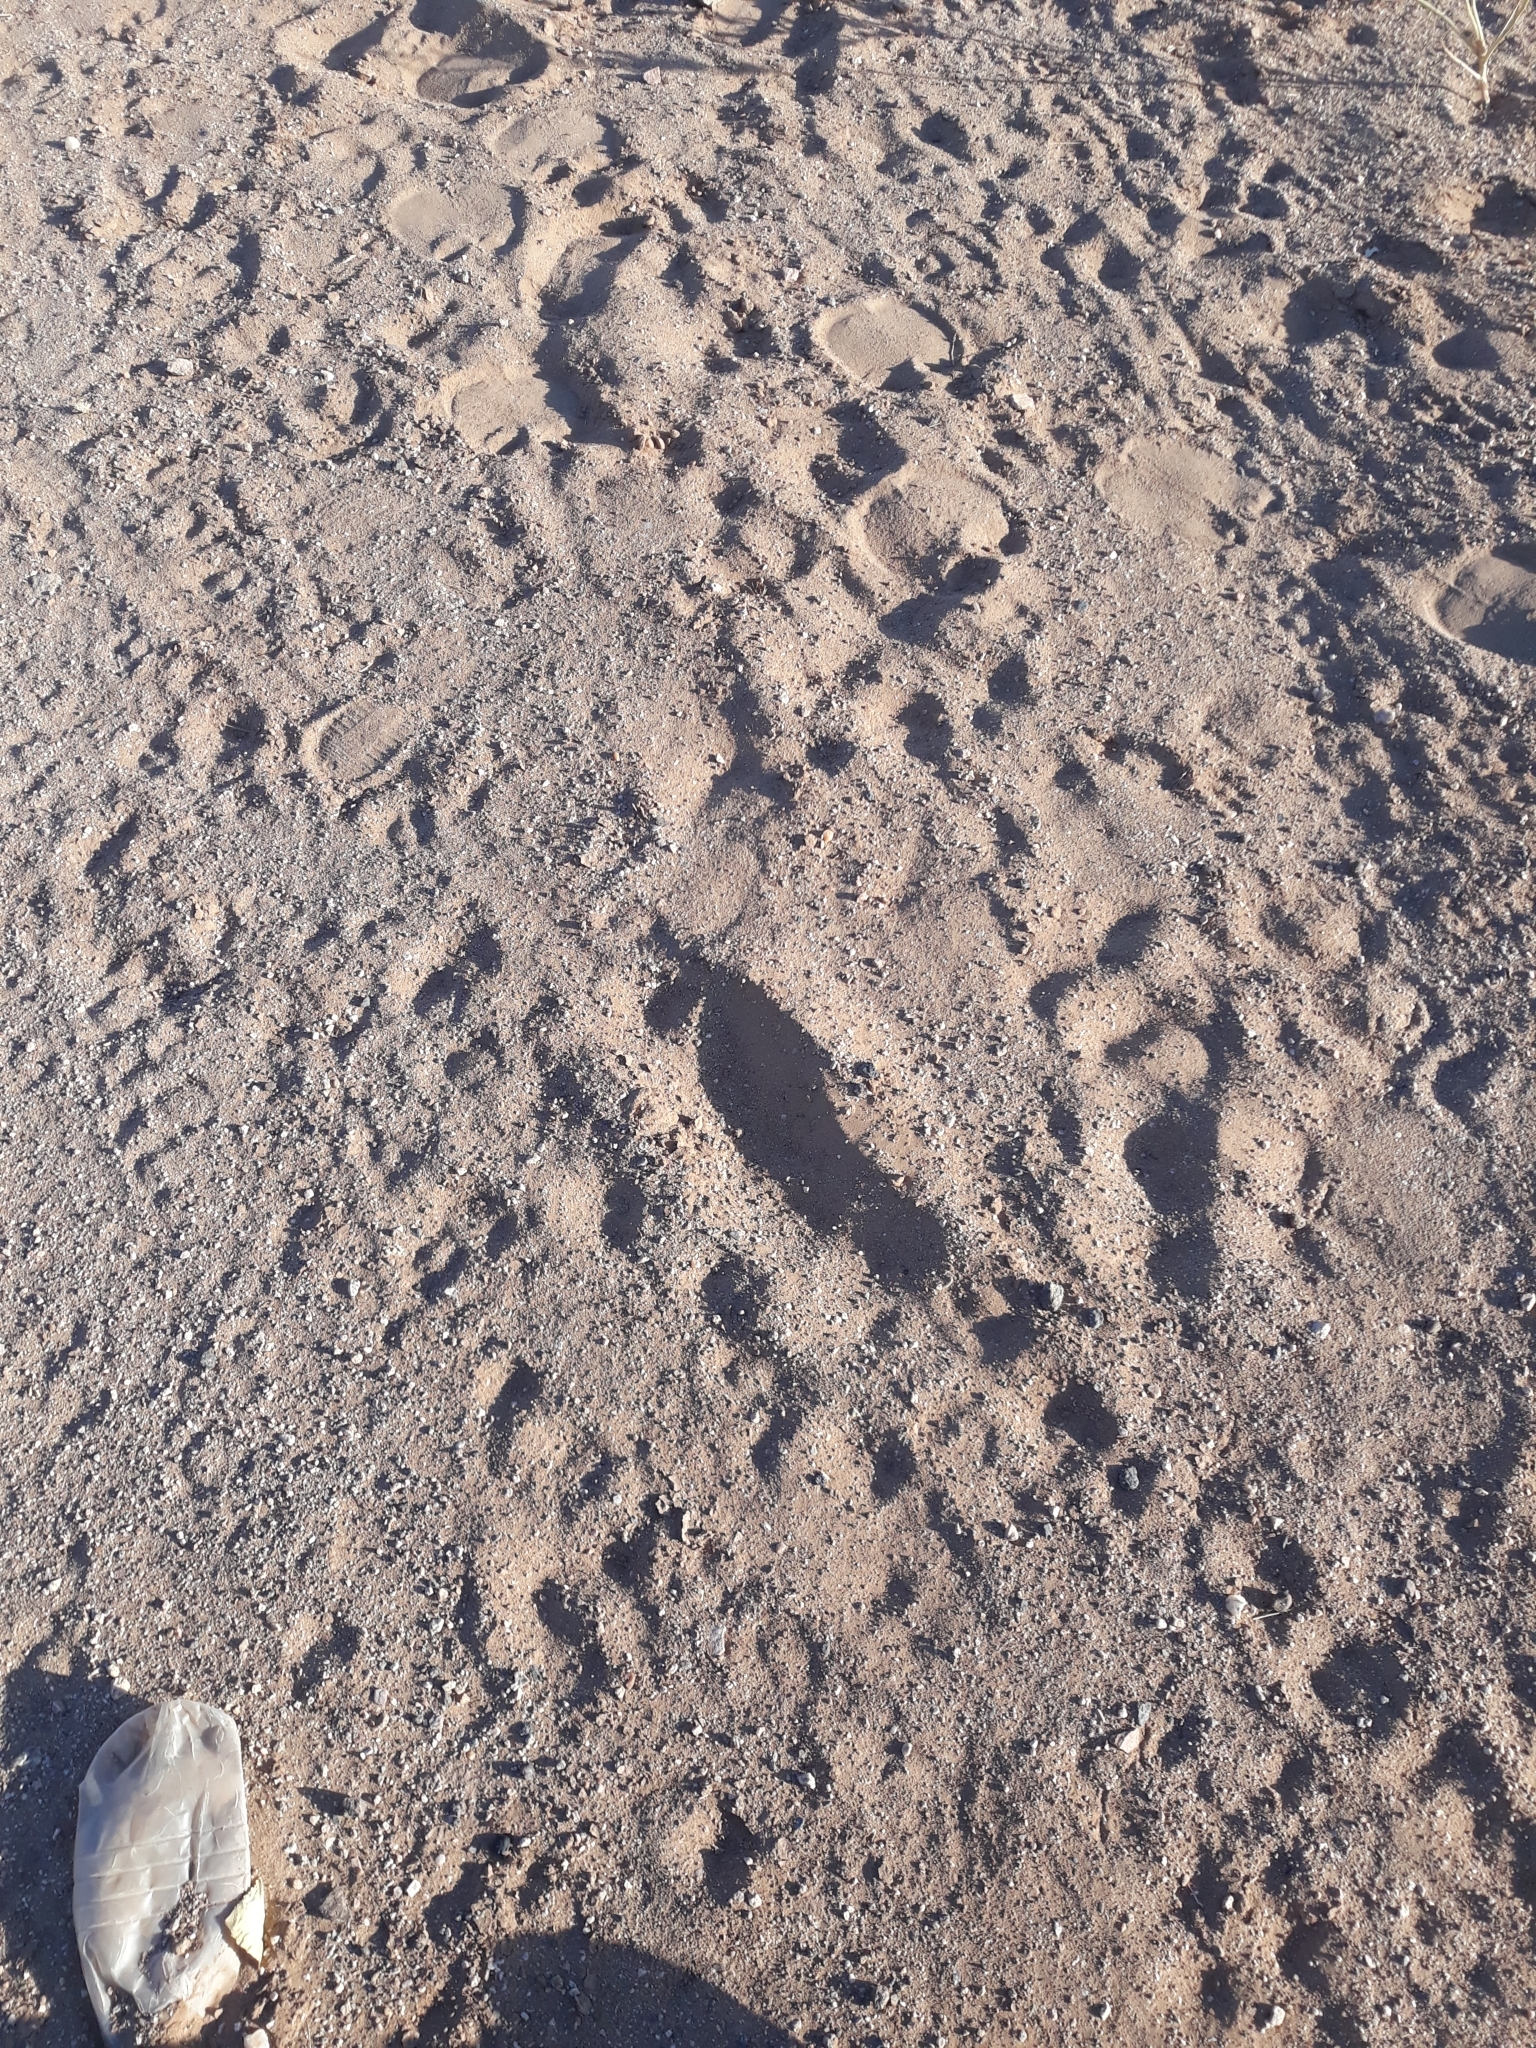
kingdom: Animalia
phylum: Chordata
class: Mammalia
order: Artiodactyla
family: Camelidae
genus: Camelus
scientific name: Camelus dromedarius
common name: One-humped camel
